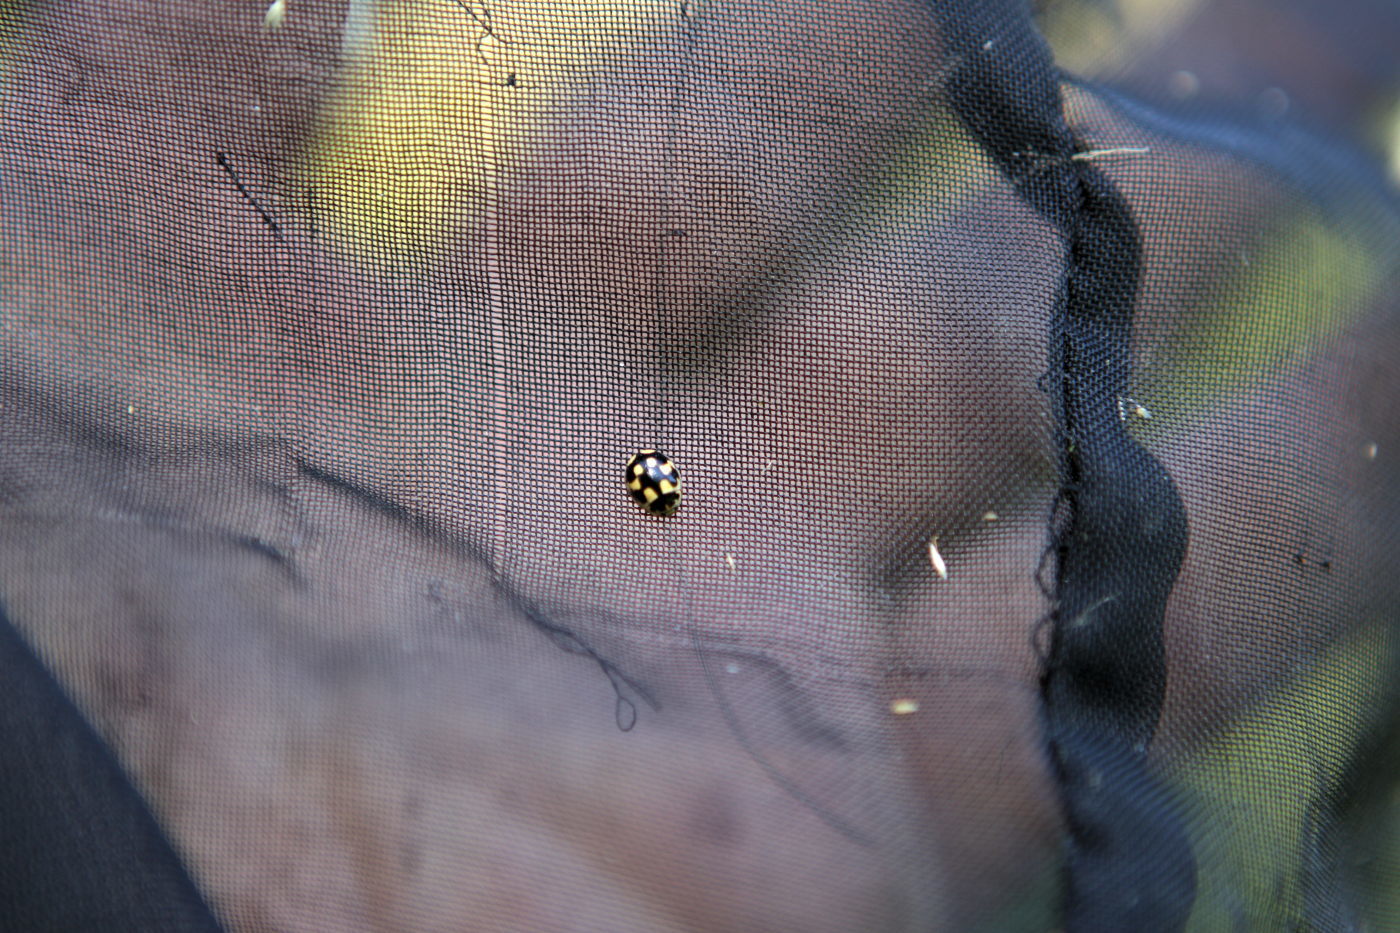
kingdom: Animalia
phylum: Arthropoda
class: Insecta
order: Coleoptera
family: Coccinellidae
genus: Propylaea
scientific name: Propylaea quatuordecimpunctata
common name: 14-spotted ladybird beetle
